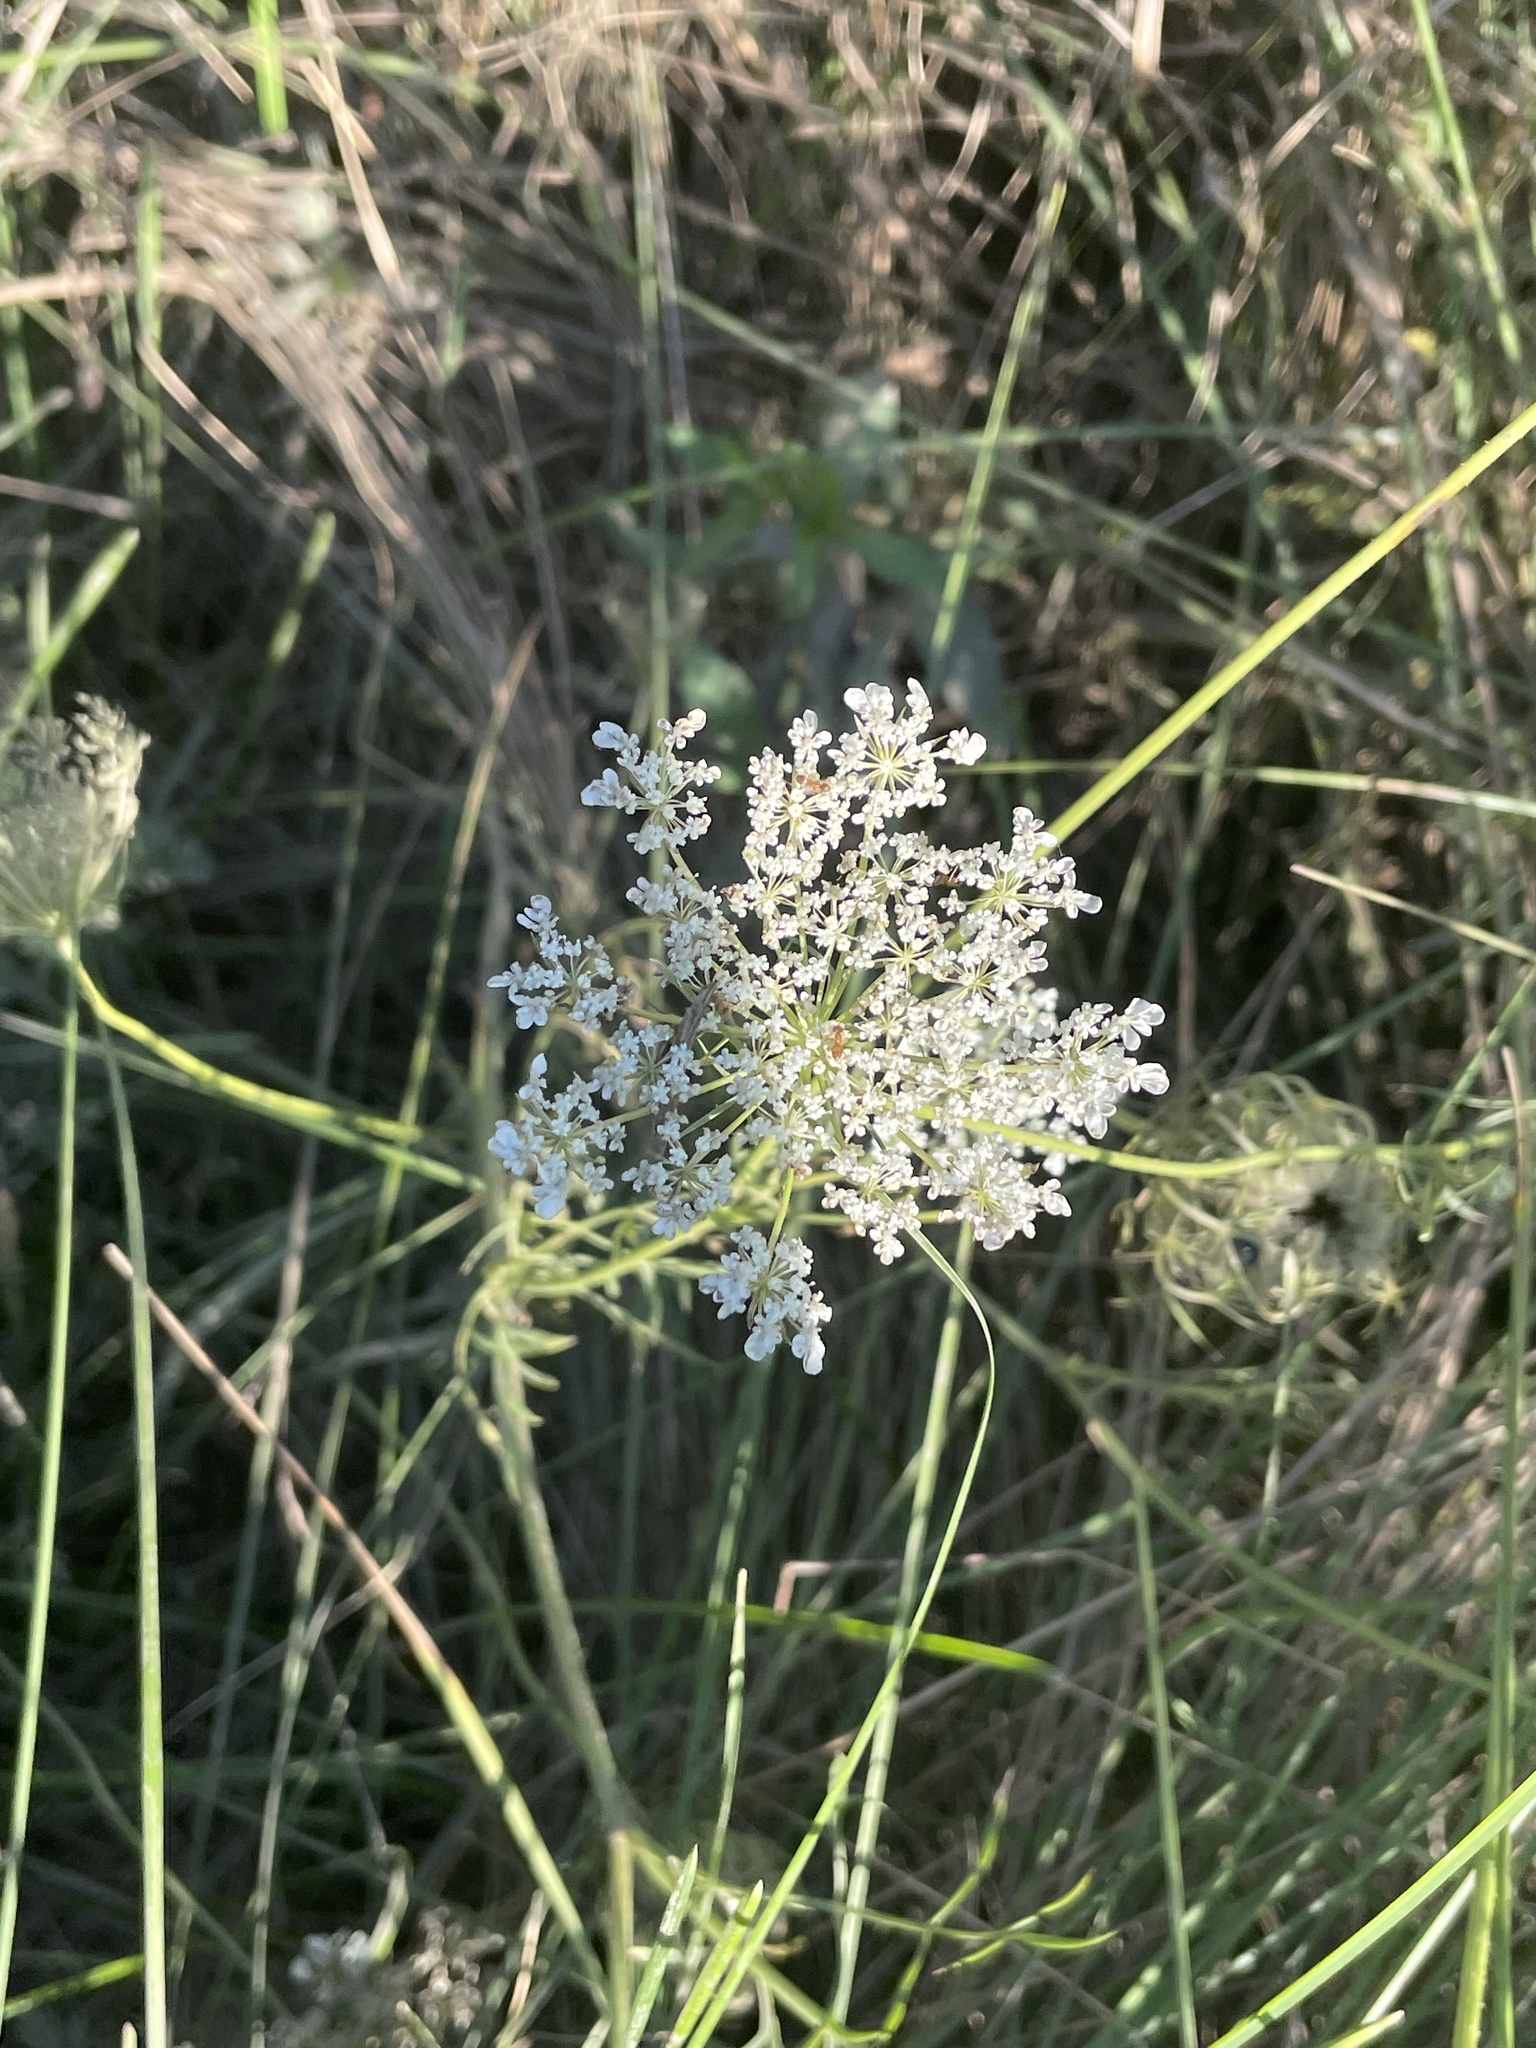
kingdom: Plantae
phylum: Tracheophyta
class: Magnoliopsida
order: Apiales
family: Apiaceae
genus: Daucus
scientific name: Daucus carota
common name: Wild carrot
